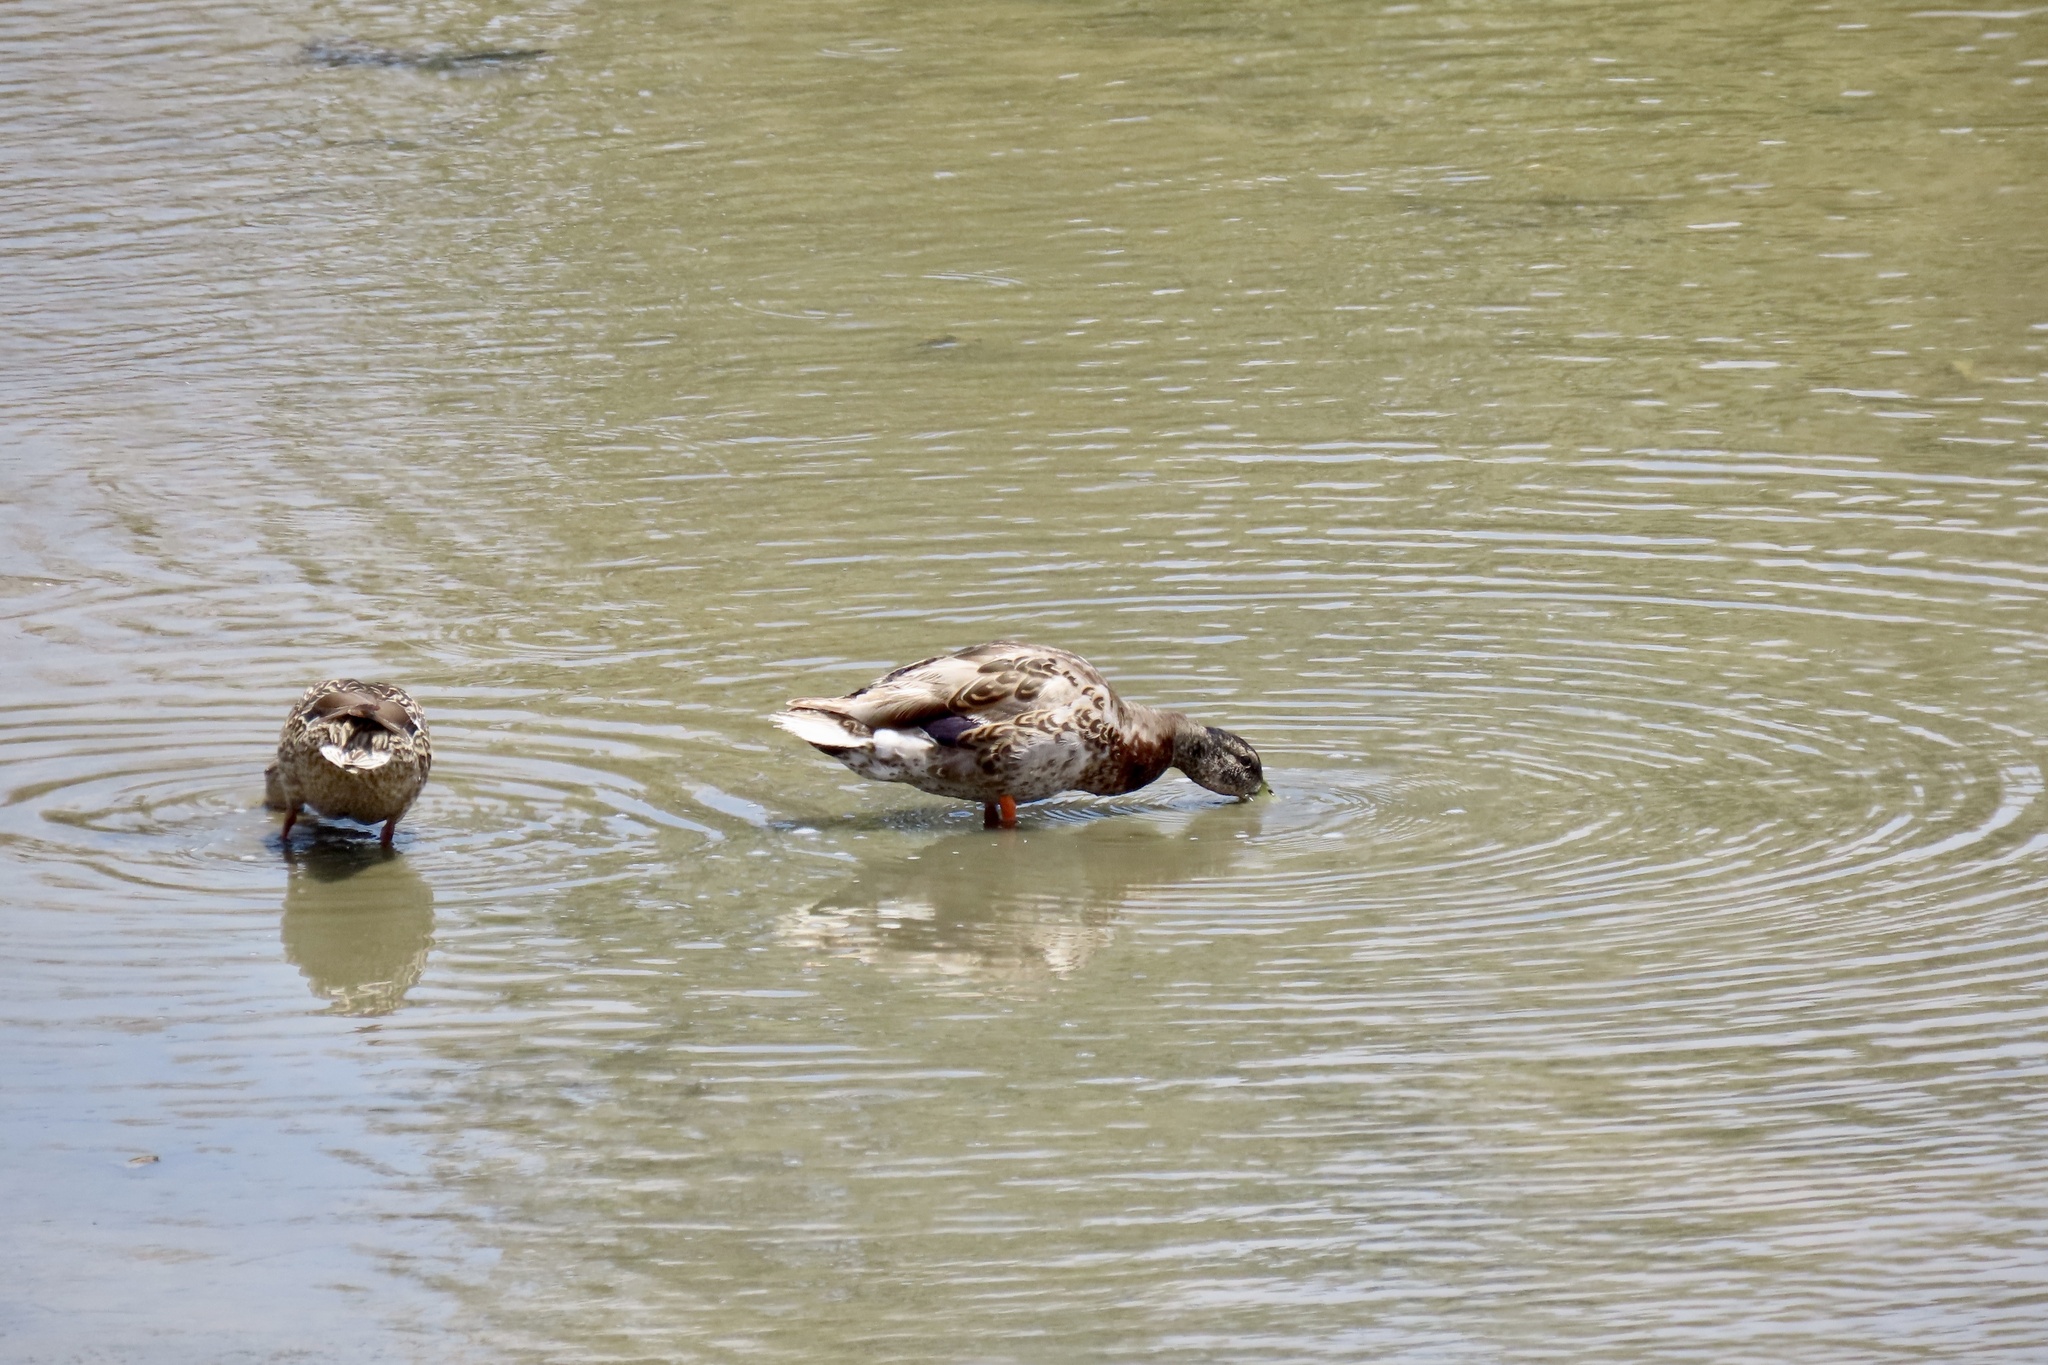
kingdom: Animalia
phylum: Chordata
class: Aves
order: Anseriformes
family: Anatidae
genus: Anas
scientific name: Anas platyrhynchos
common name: Mallard
